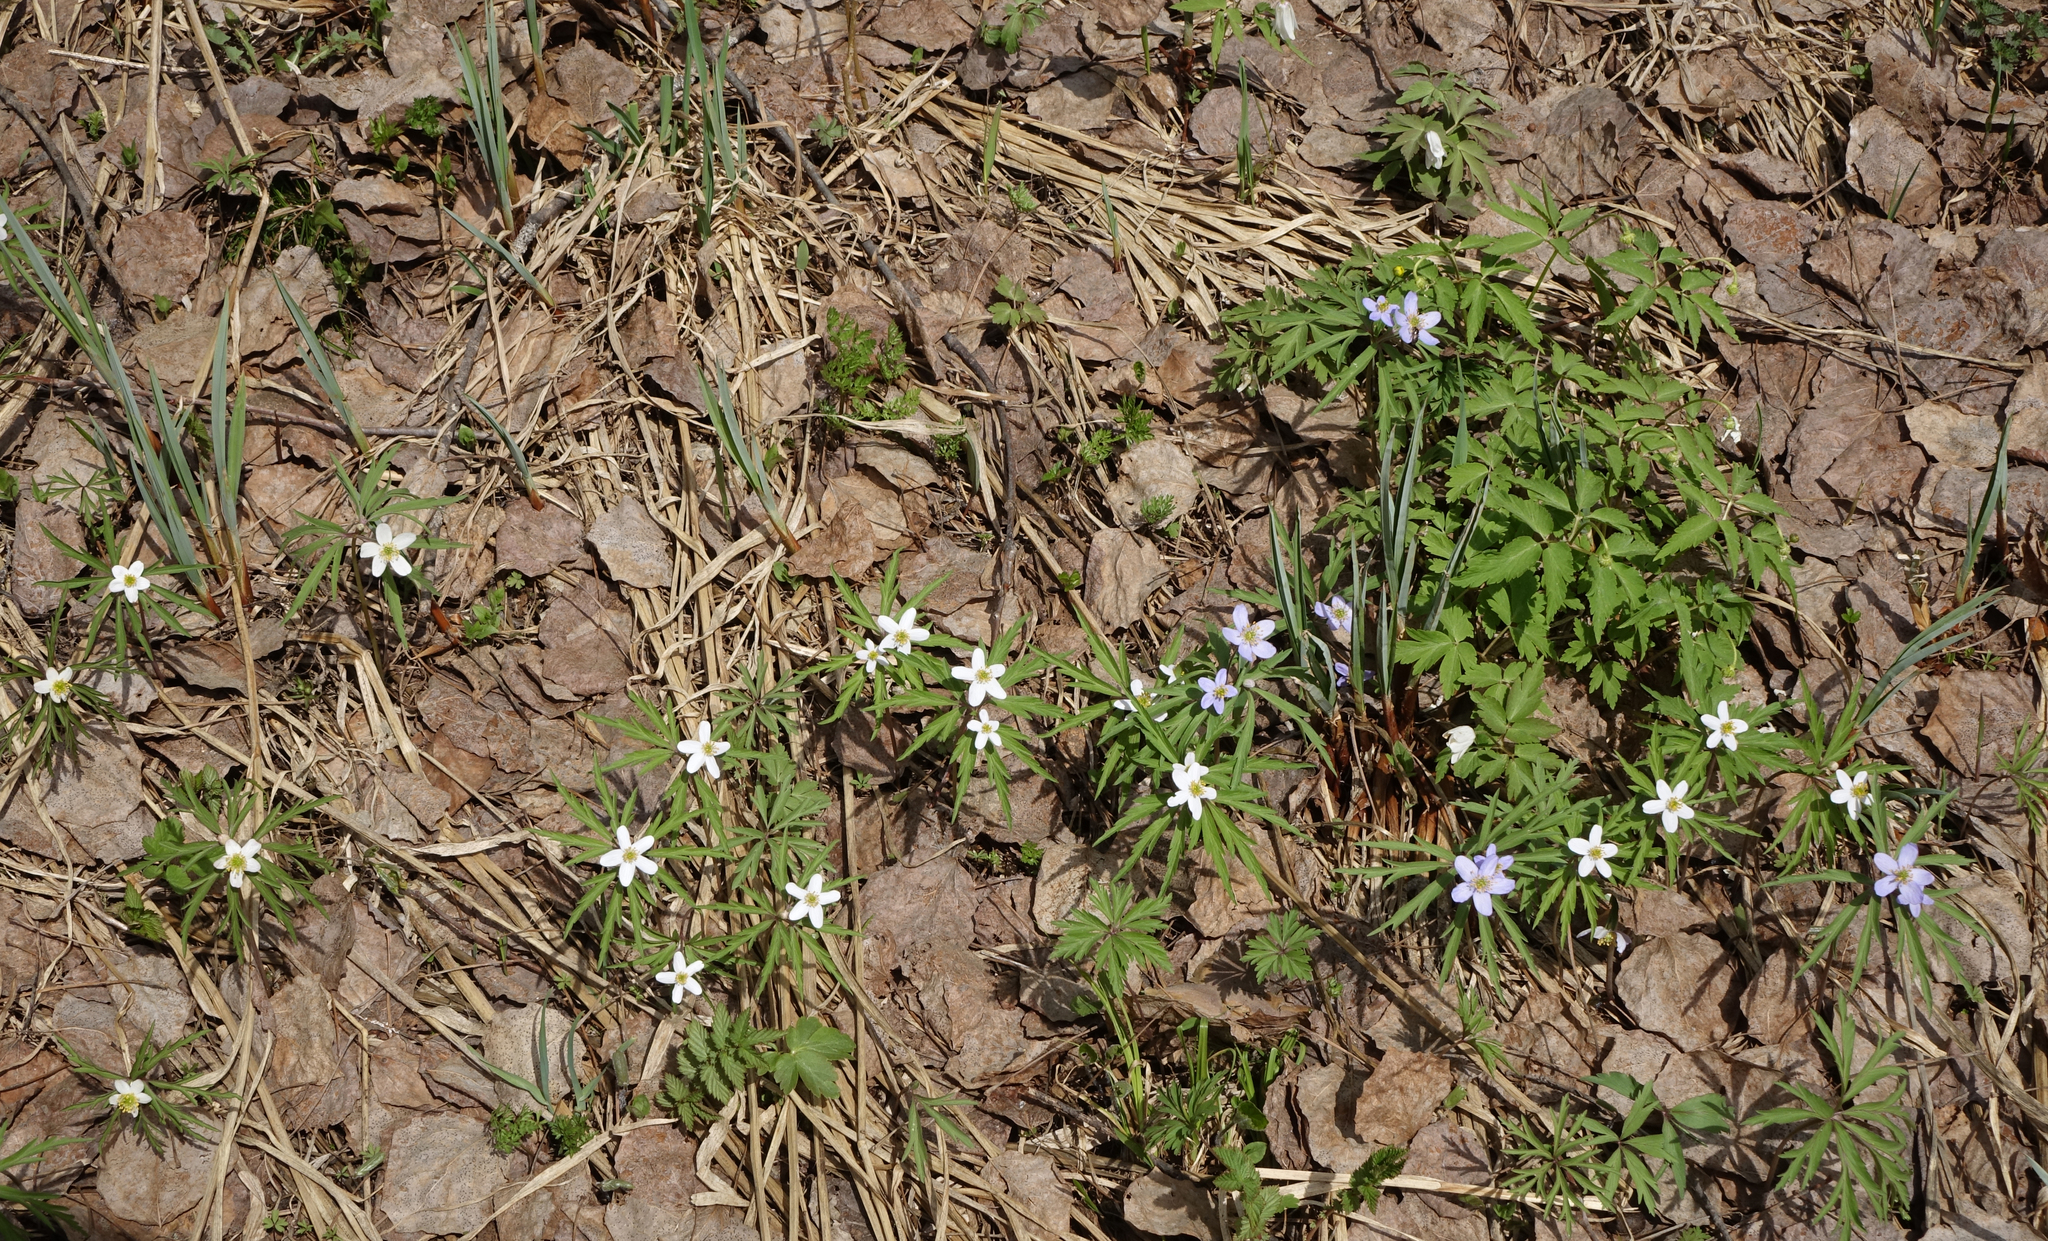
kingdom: Plantae
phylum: Tracheophyta
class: Magnoliopsida
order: Ranunculales
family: Ranunculaceae
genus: Anemone
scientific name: Anemone caerulea
